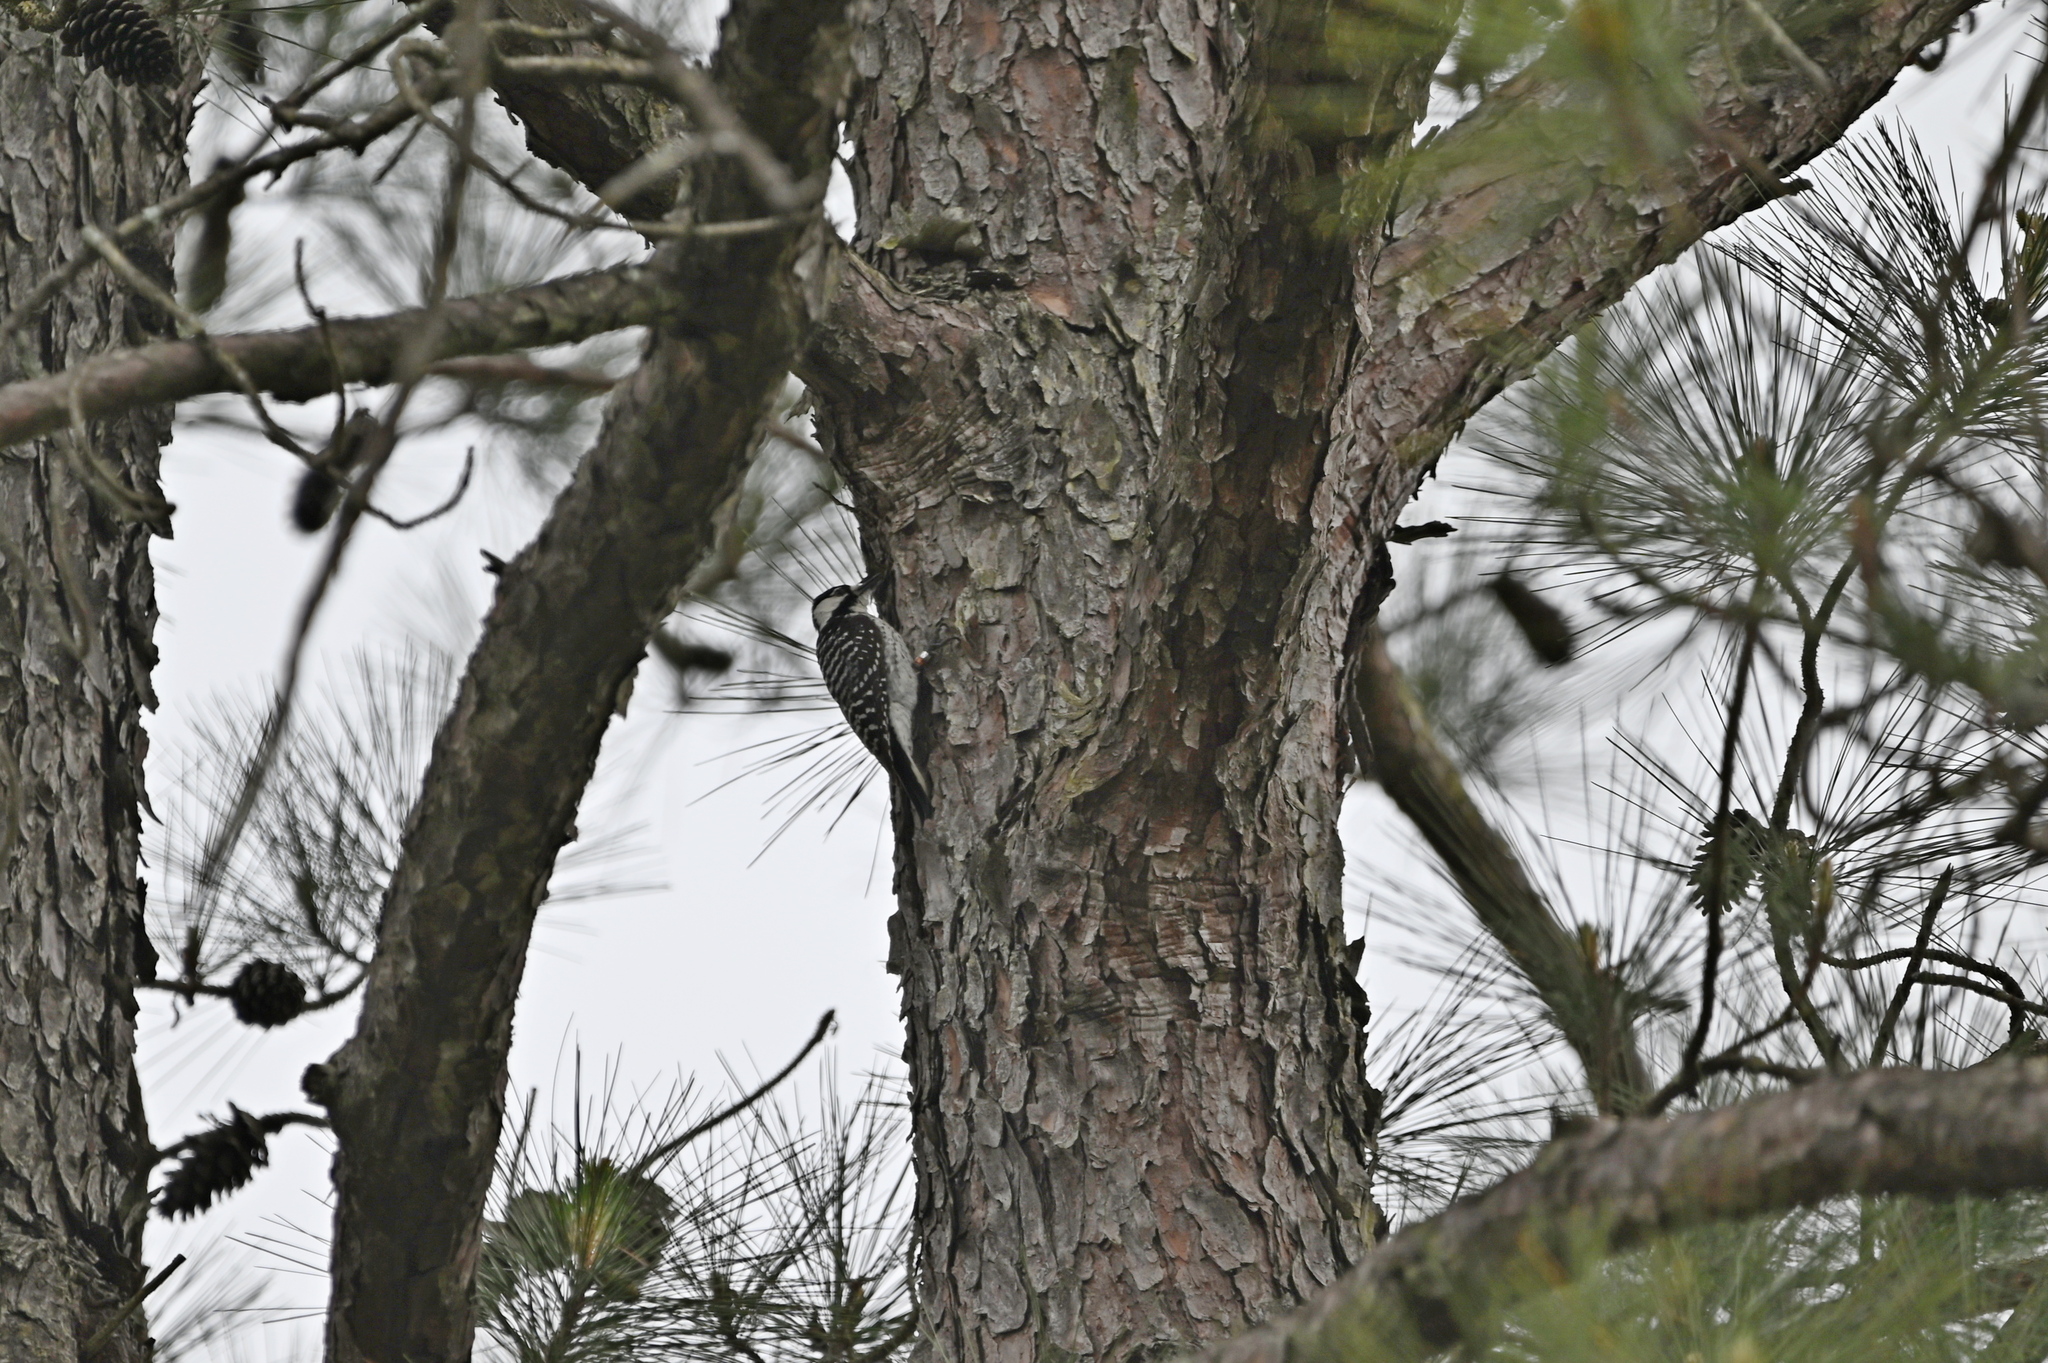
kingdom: Animalia
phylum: Chordata
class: Aves
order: Piciformes
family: Picidae
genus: Leuconotopicus
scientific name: Leuconotopicus borealis
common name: Red-cockaded woodpecker
